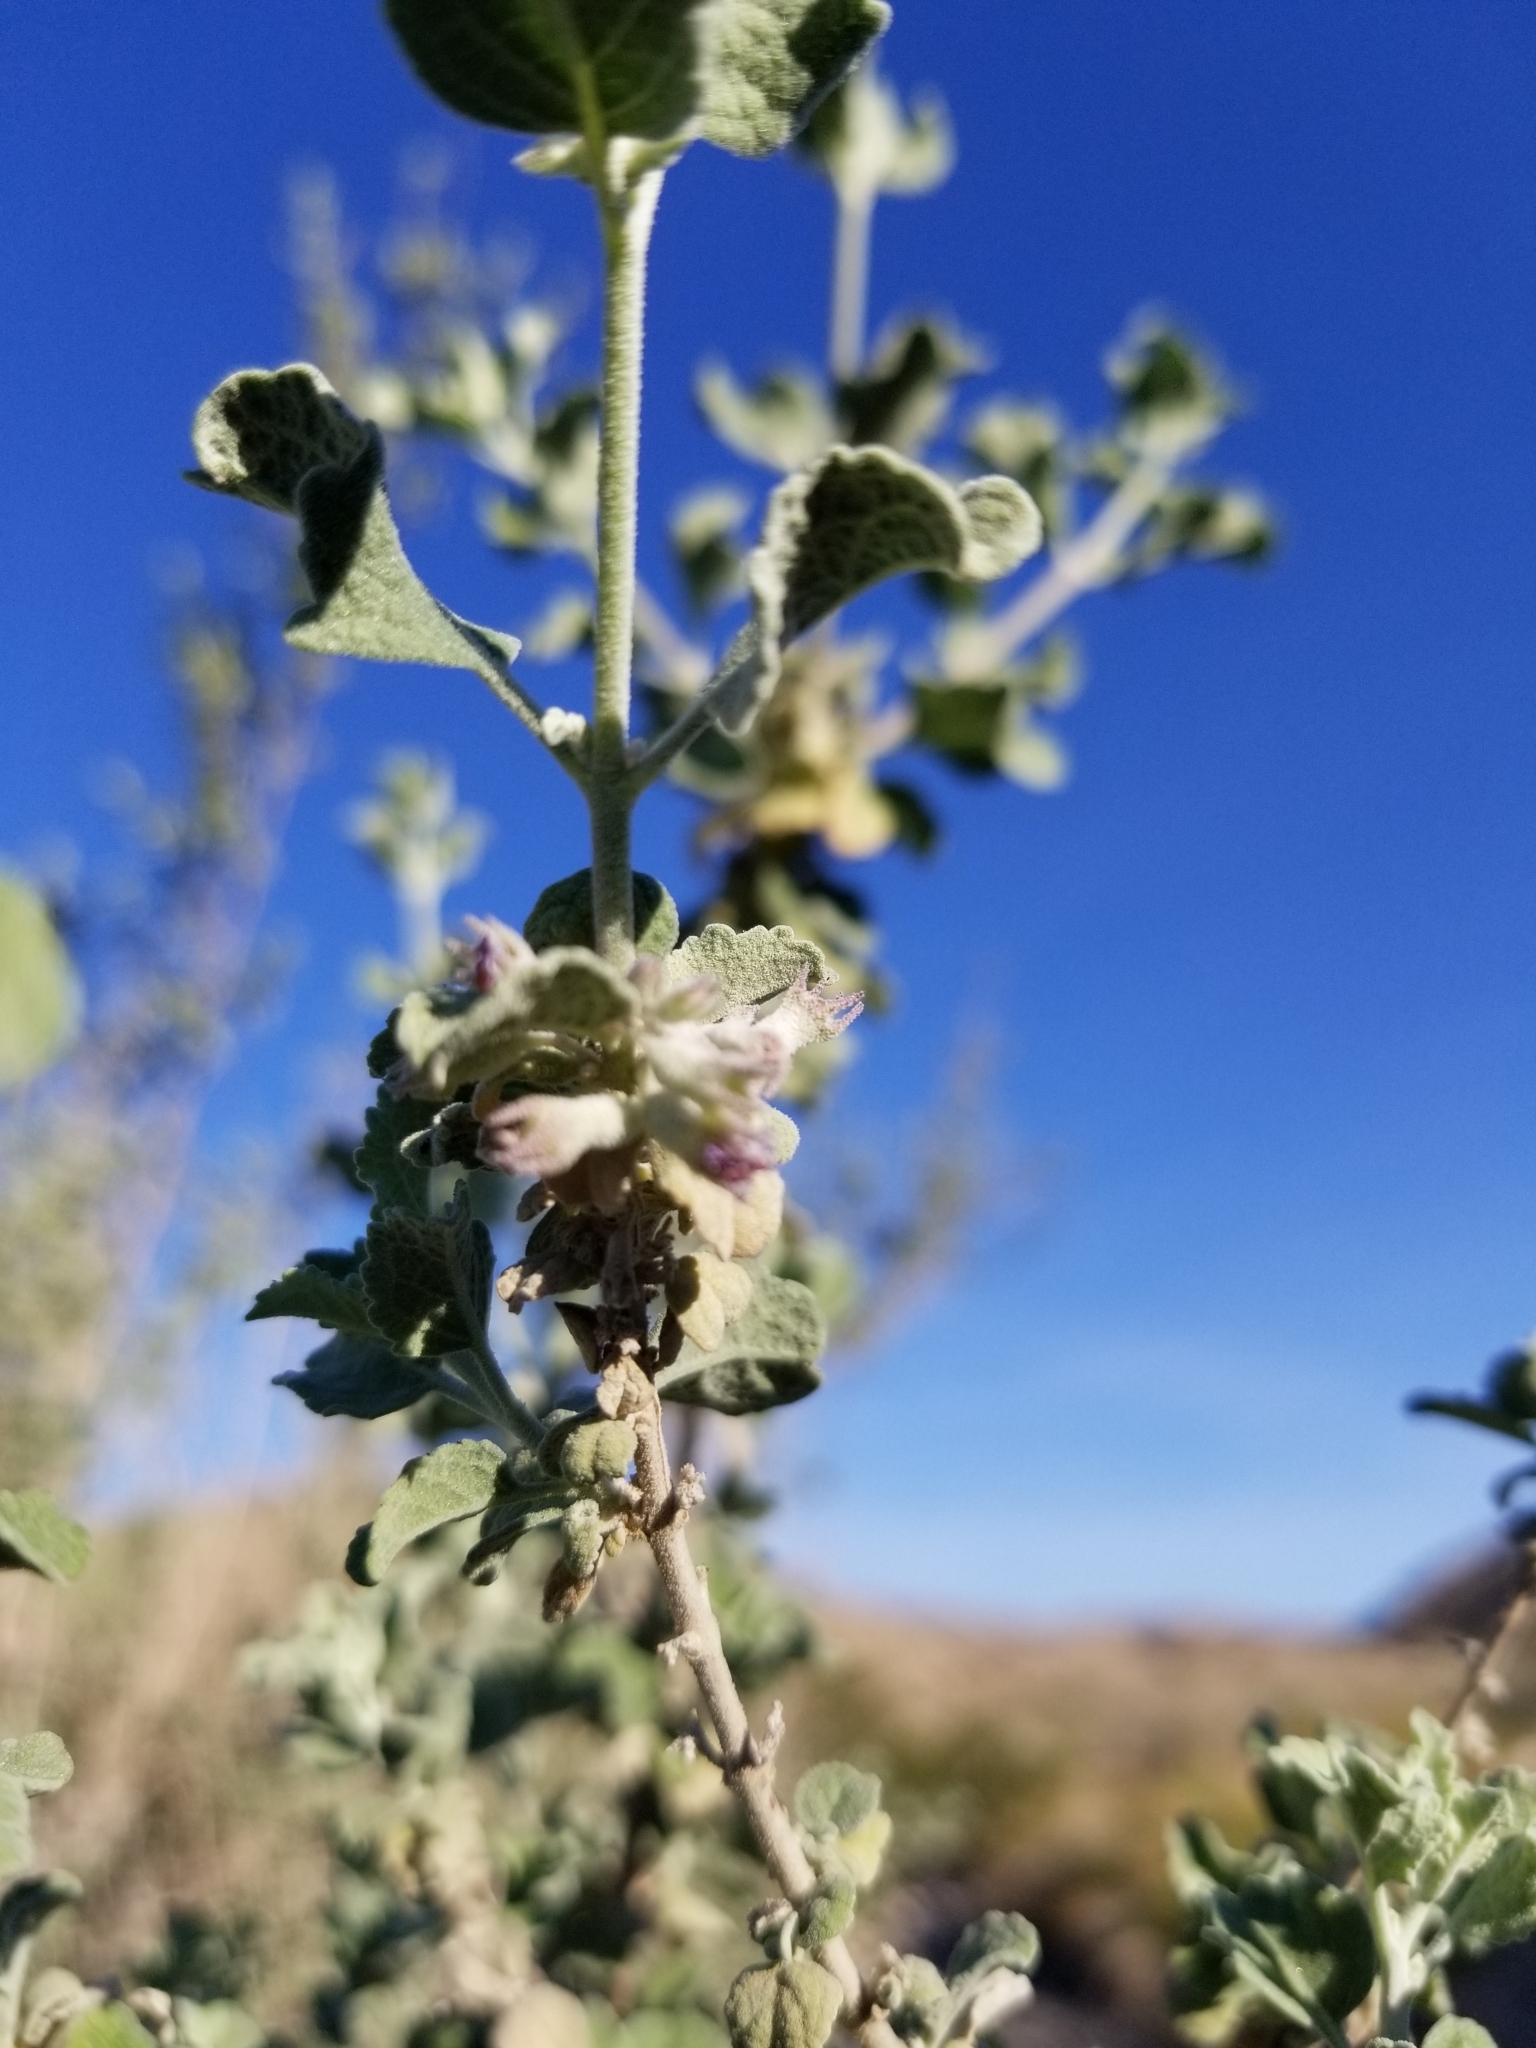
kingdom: Plantae
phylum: Tracheophyta
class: Magnoliopsida
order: Lamiales
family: Lamiaceae
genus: Condea
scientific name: Condea emoryi
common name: Chia
